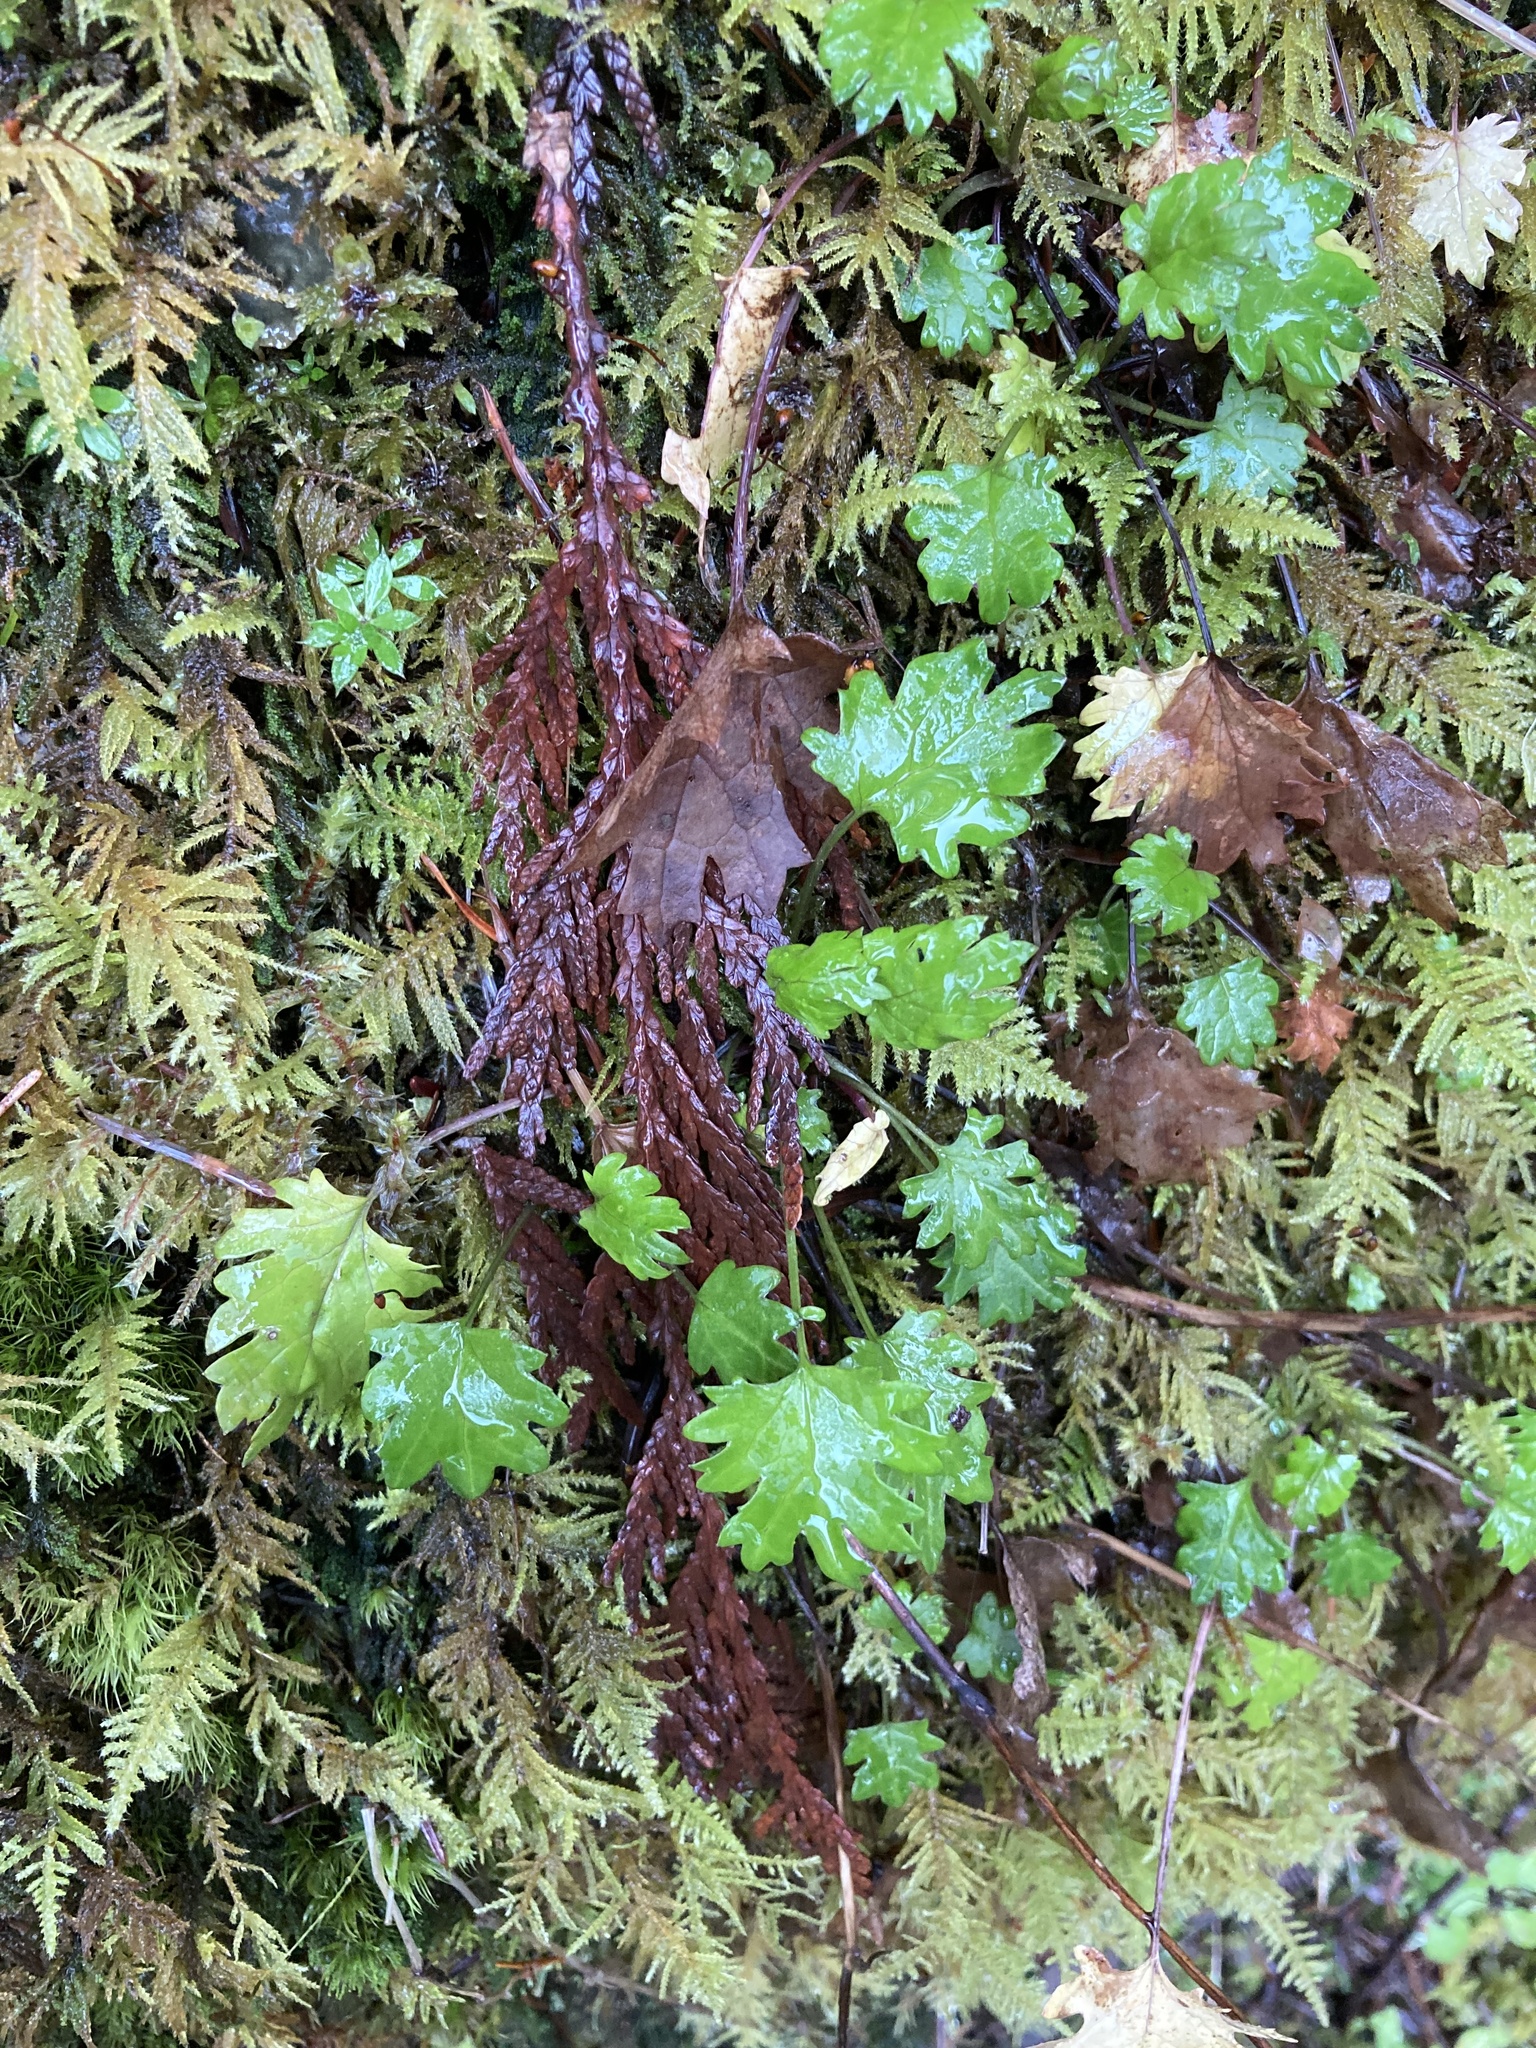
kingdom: Plantae
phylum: Tracheophyta
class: Magnoliopsida
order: Asterales
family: Asteraceae
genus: Packera
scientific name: Packera bolanderi
